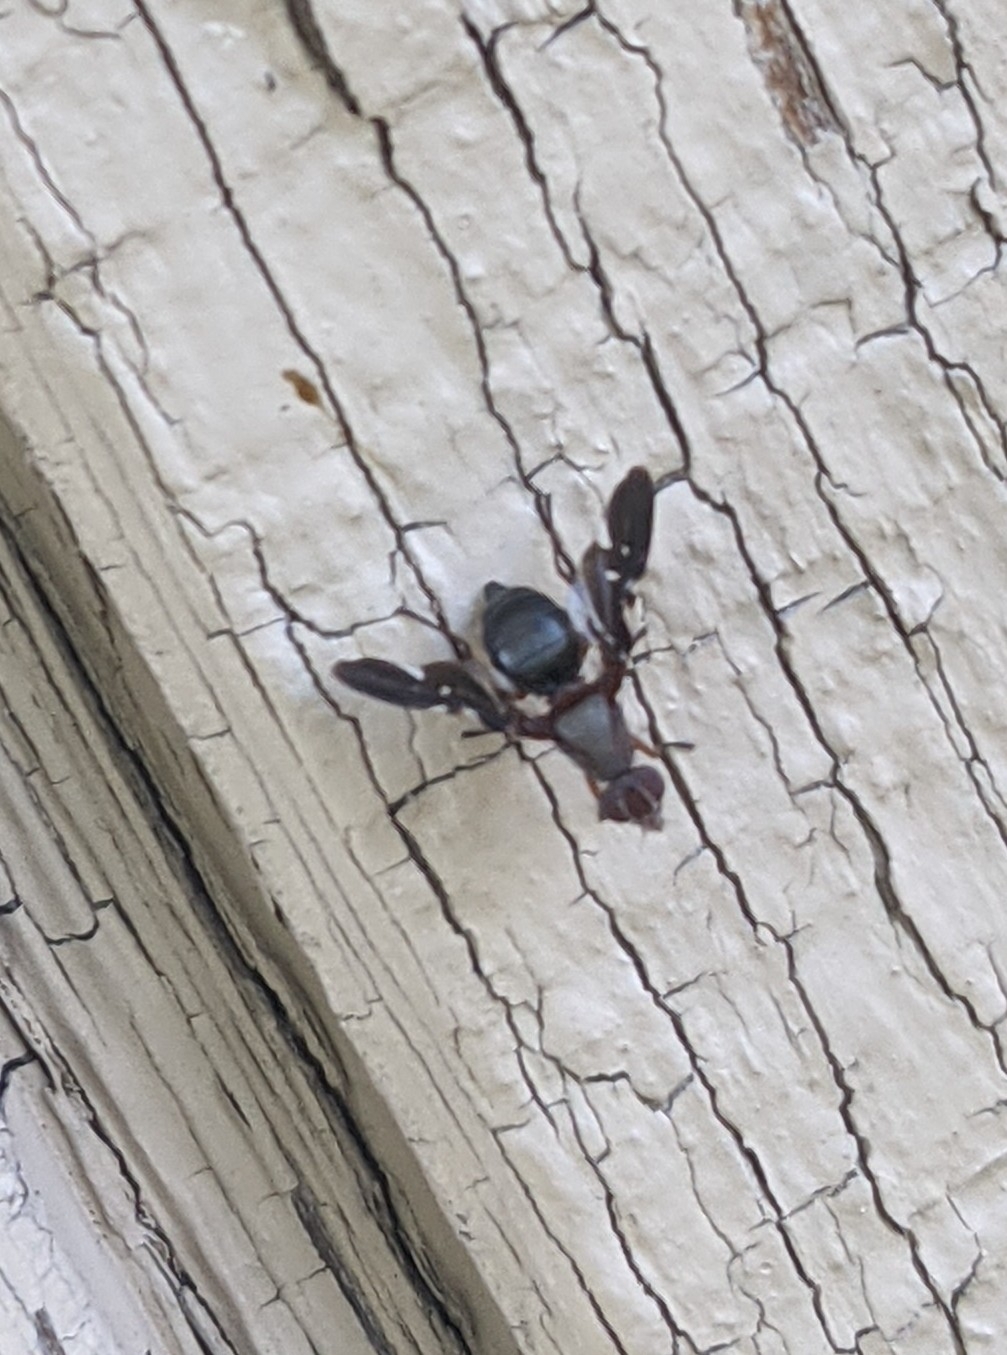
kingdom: Animalia
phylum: Arthropoda
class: Insecta
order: Diptera
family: Ulidiidae
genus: Delphinia
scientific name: Delphinia picta
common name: Common picture-winged fly
